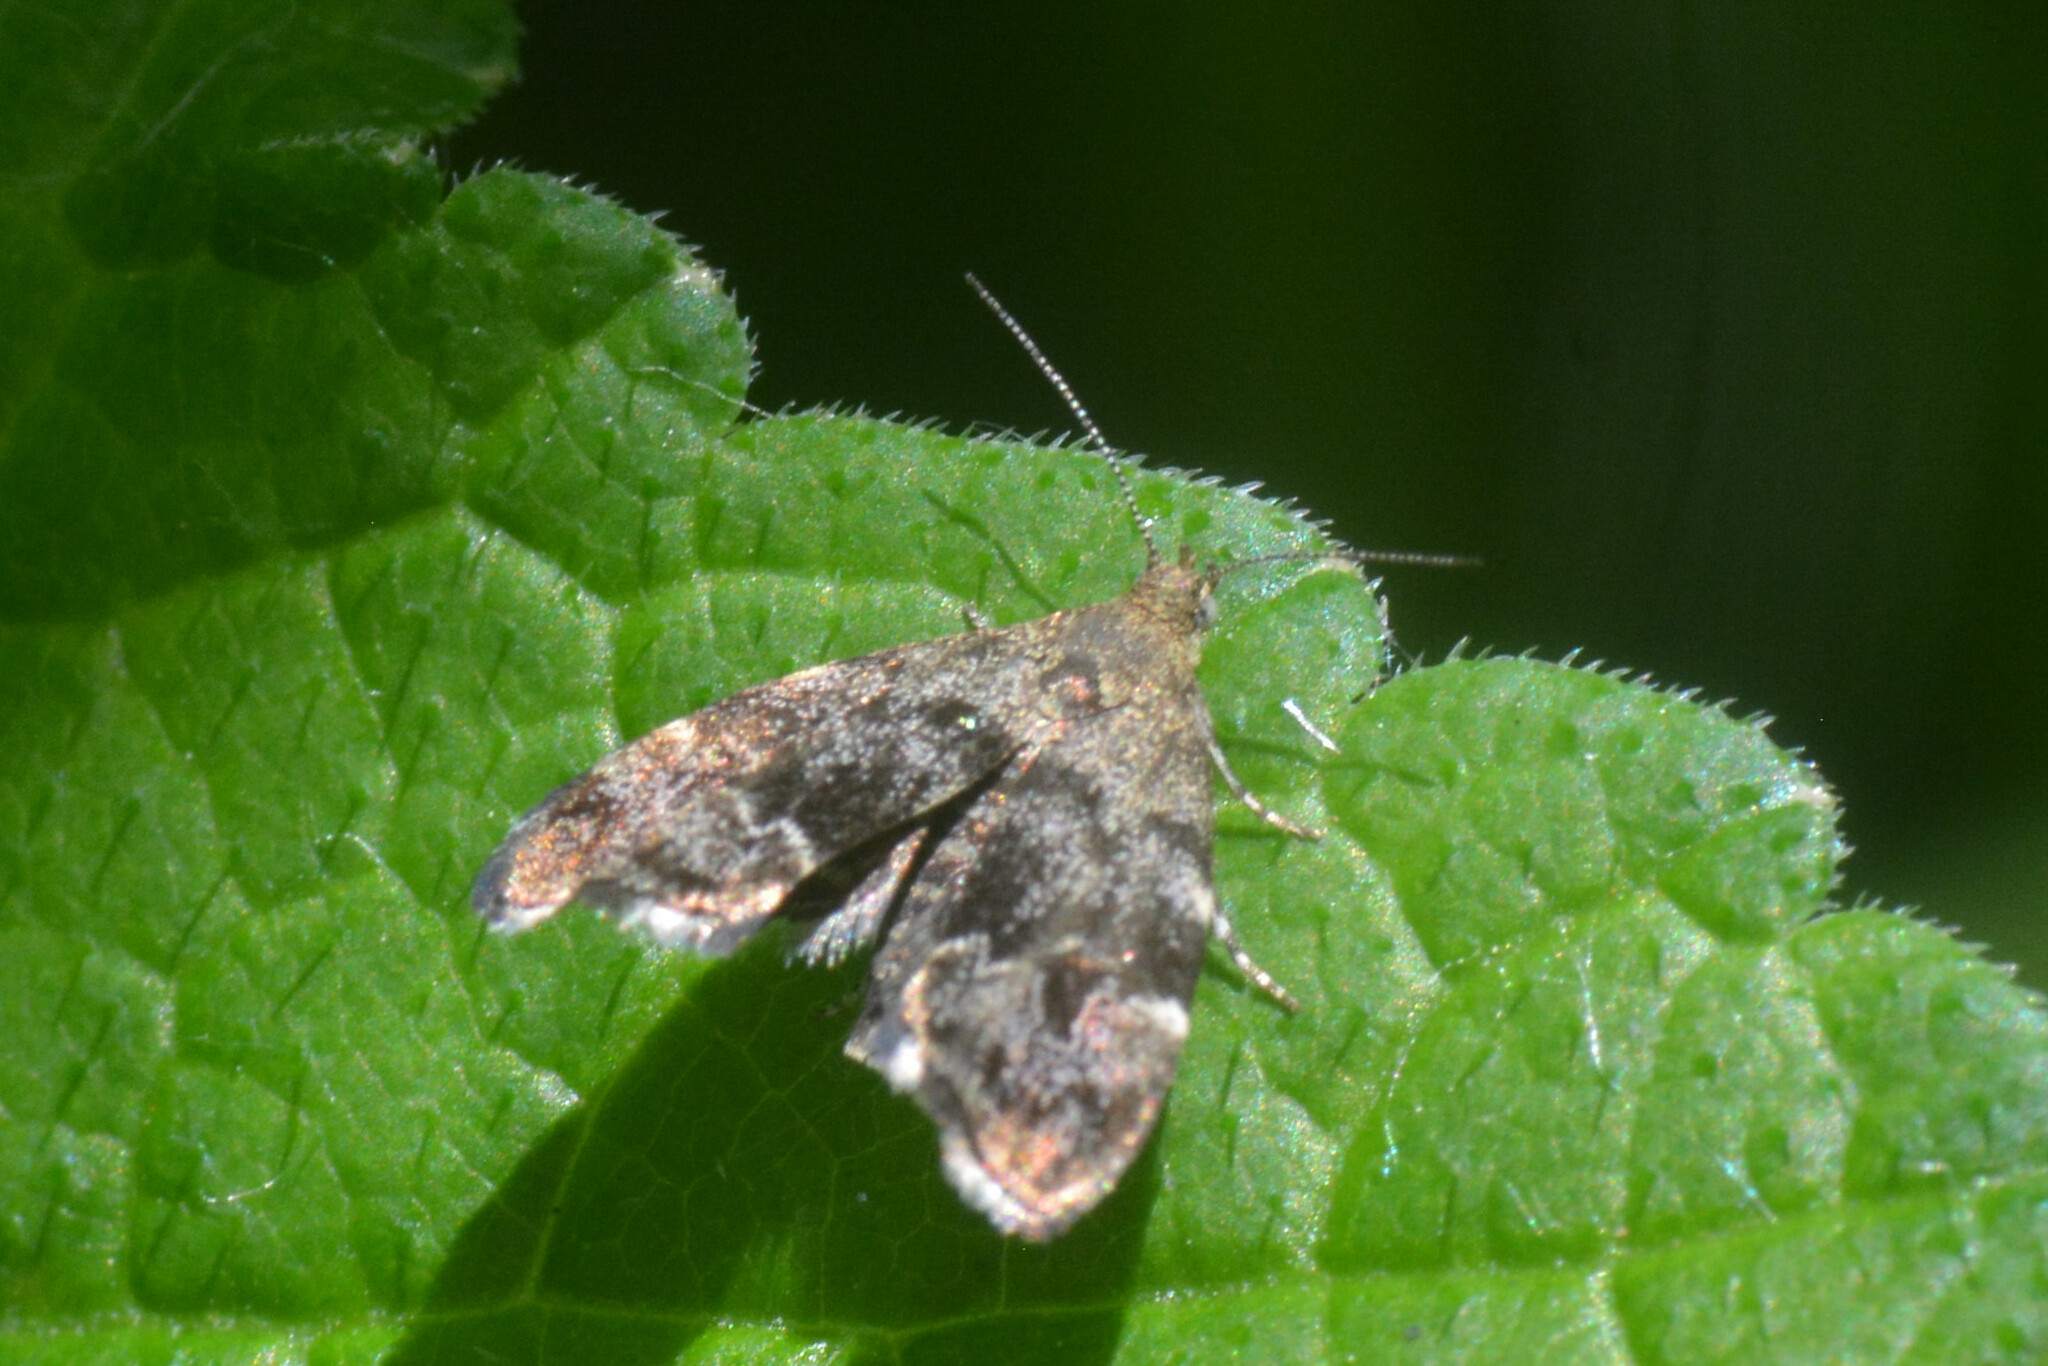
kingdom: Animalia
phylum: Arthropoda
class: Insecta
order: Lepidoptera
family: Choreutidae
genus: Anthophila
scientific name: Anthophila fabriciana
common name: Nettle-tap
